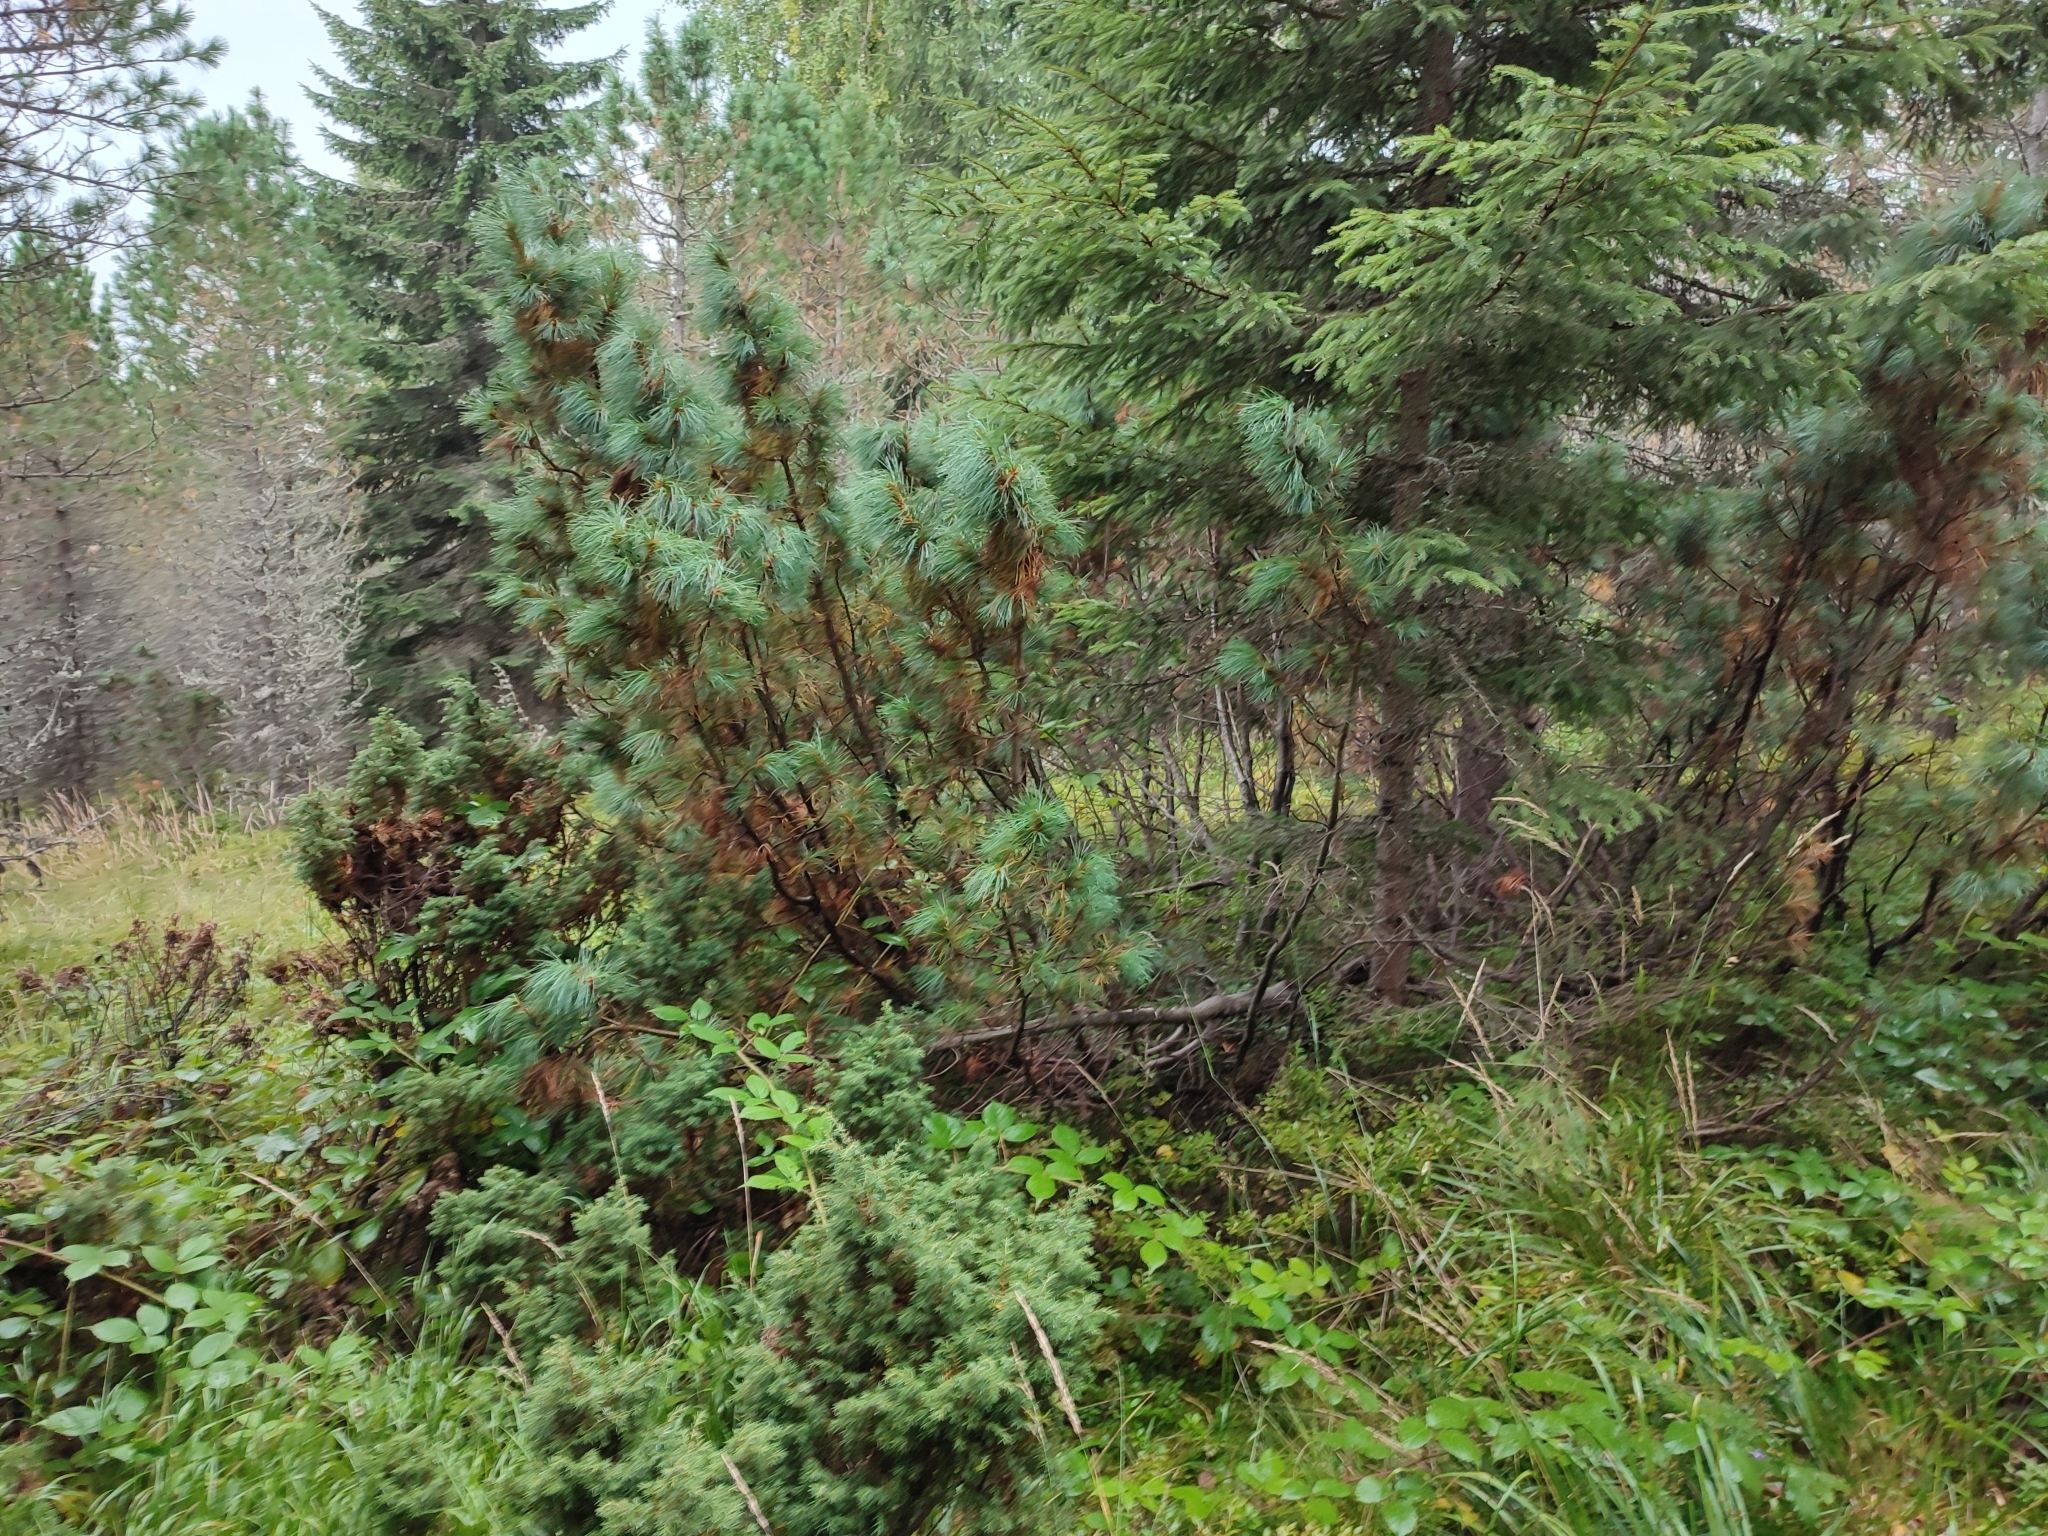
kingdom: Plantae
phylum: Tracheophyta
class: Pinopsida
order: Pinales
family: Pinaceae
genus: Pinus
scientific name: Pinus cembra
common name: Arolla pine
